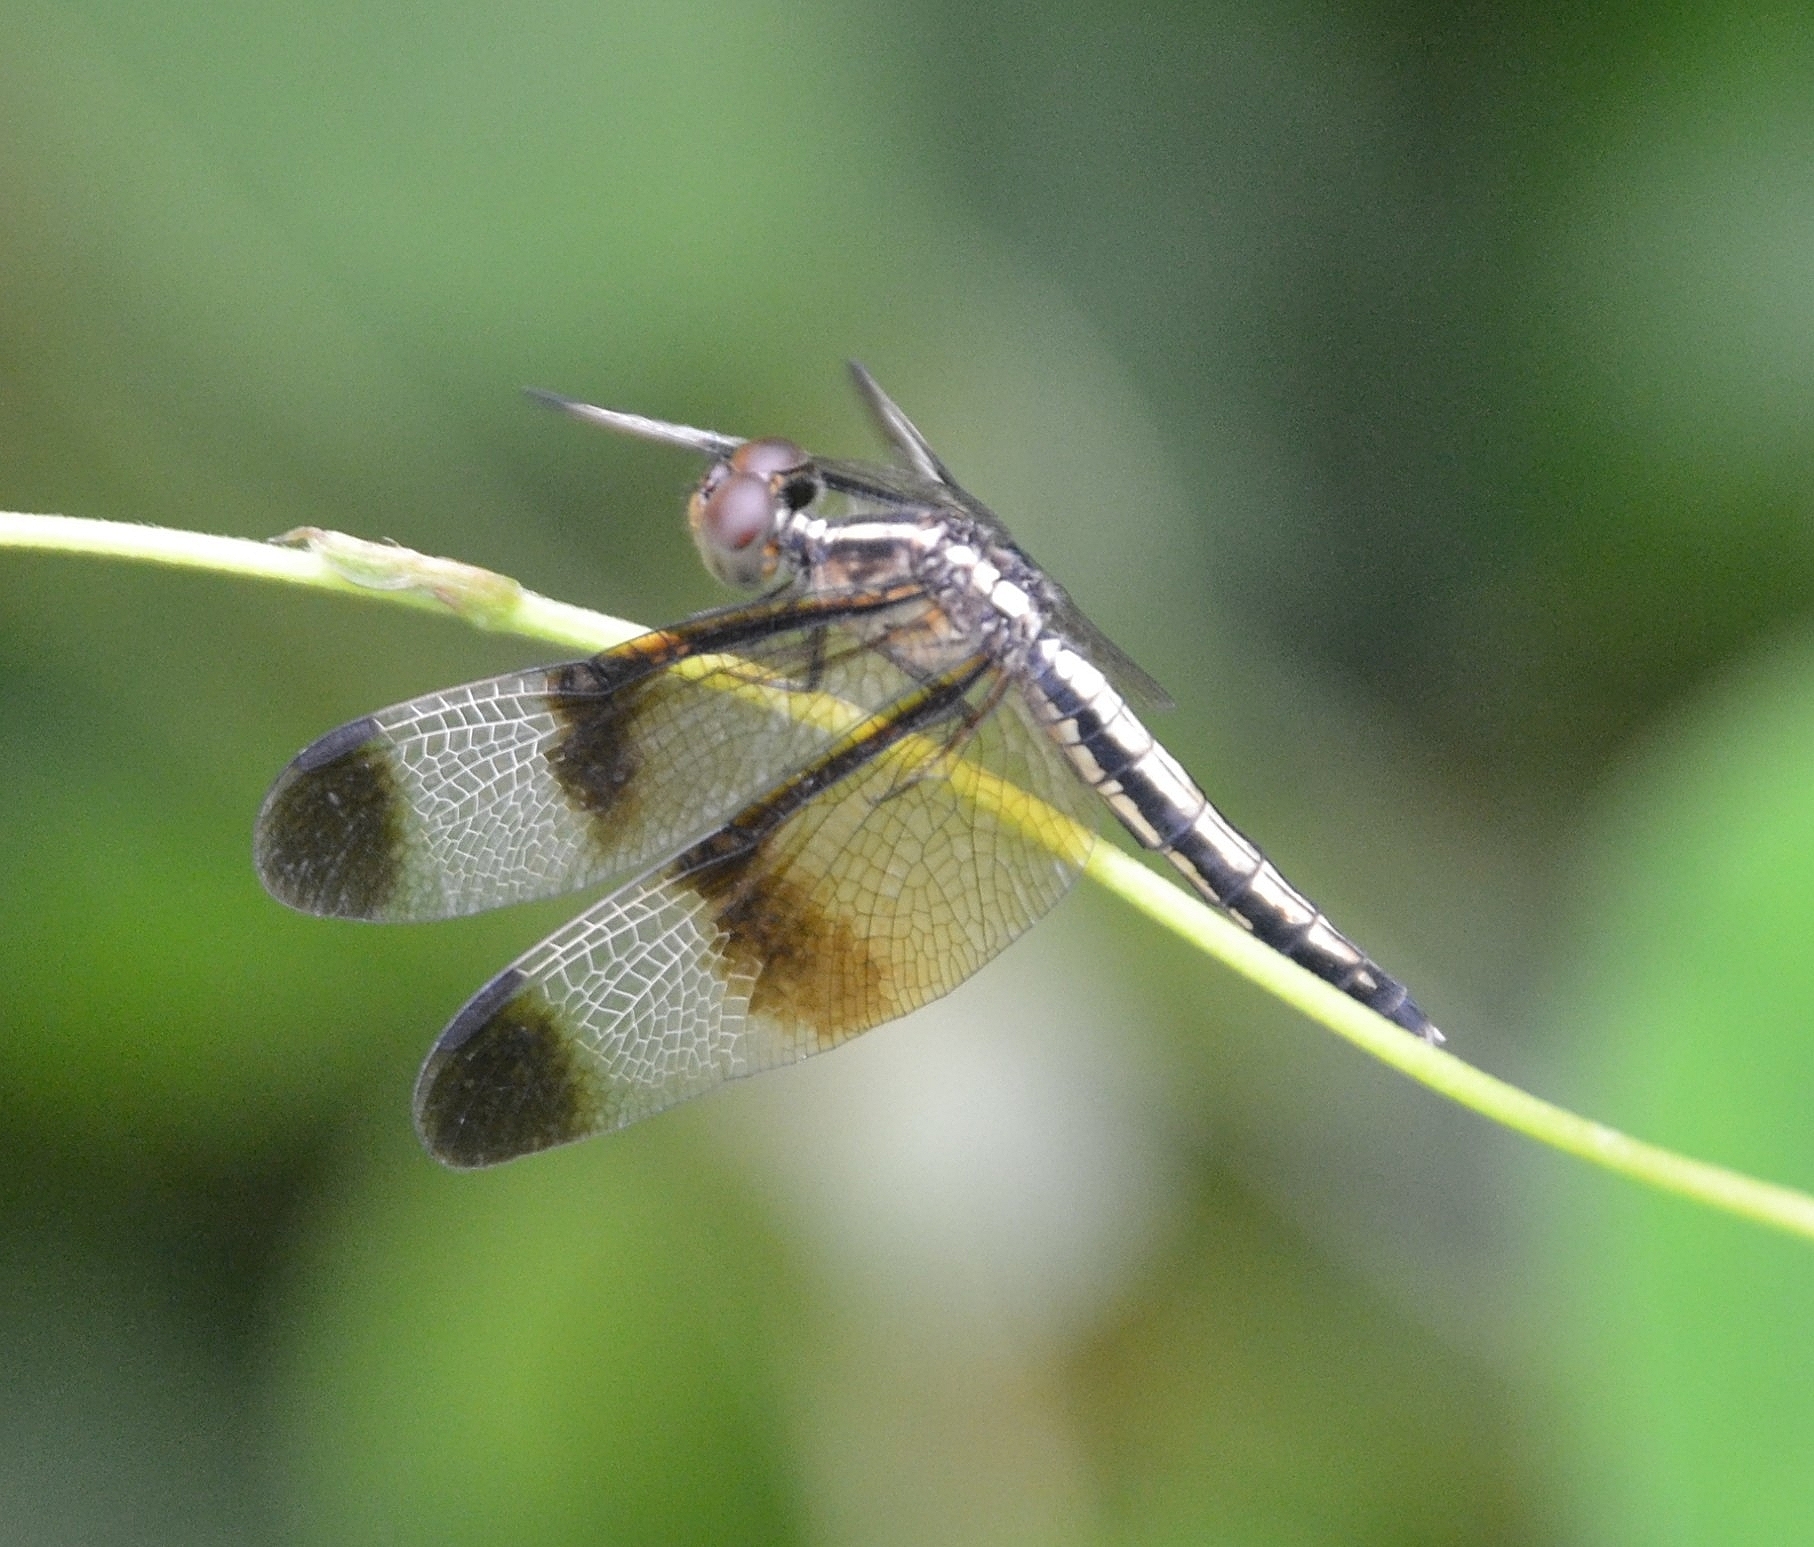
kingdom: Animalia
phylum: Arthropoda
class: Insecta
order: Odonata
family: Libellulidae
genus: Neurothemis
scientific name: Neurothemis tullia
